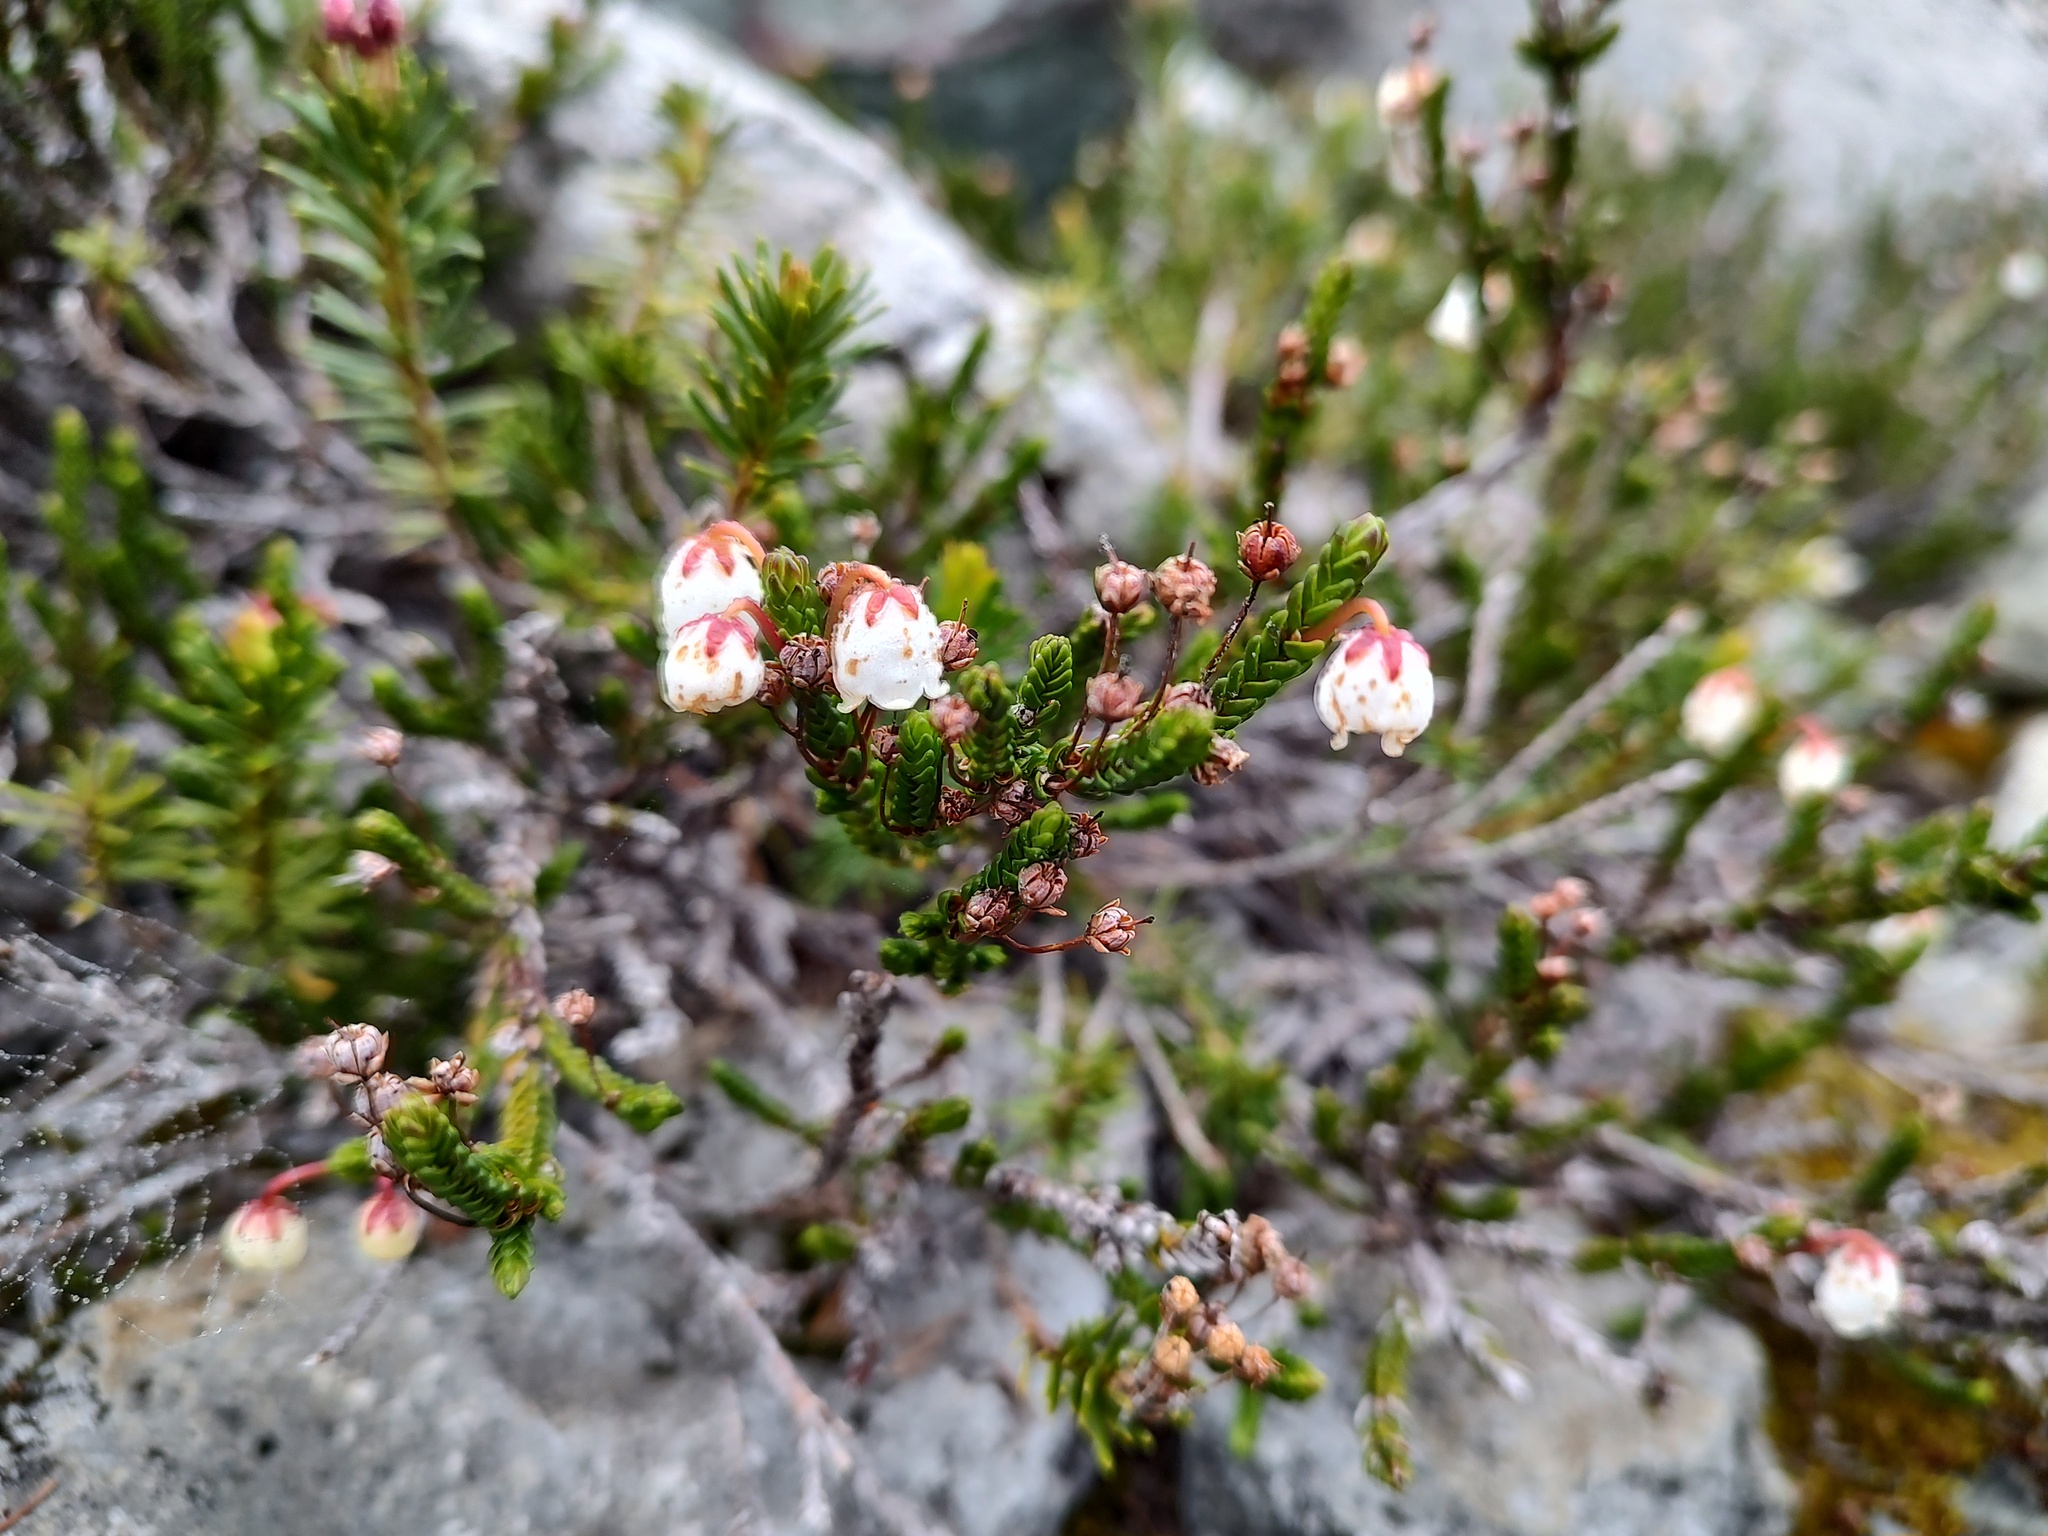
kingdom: Plantae
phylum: Tracheophyta
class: Magnoliopsida
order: Ericales
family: Ericaceae
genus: Cassiope
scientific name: Cassiope mertensiana
